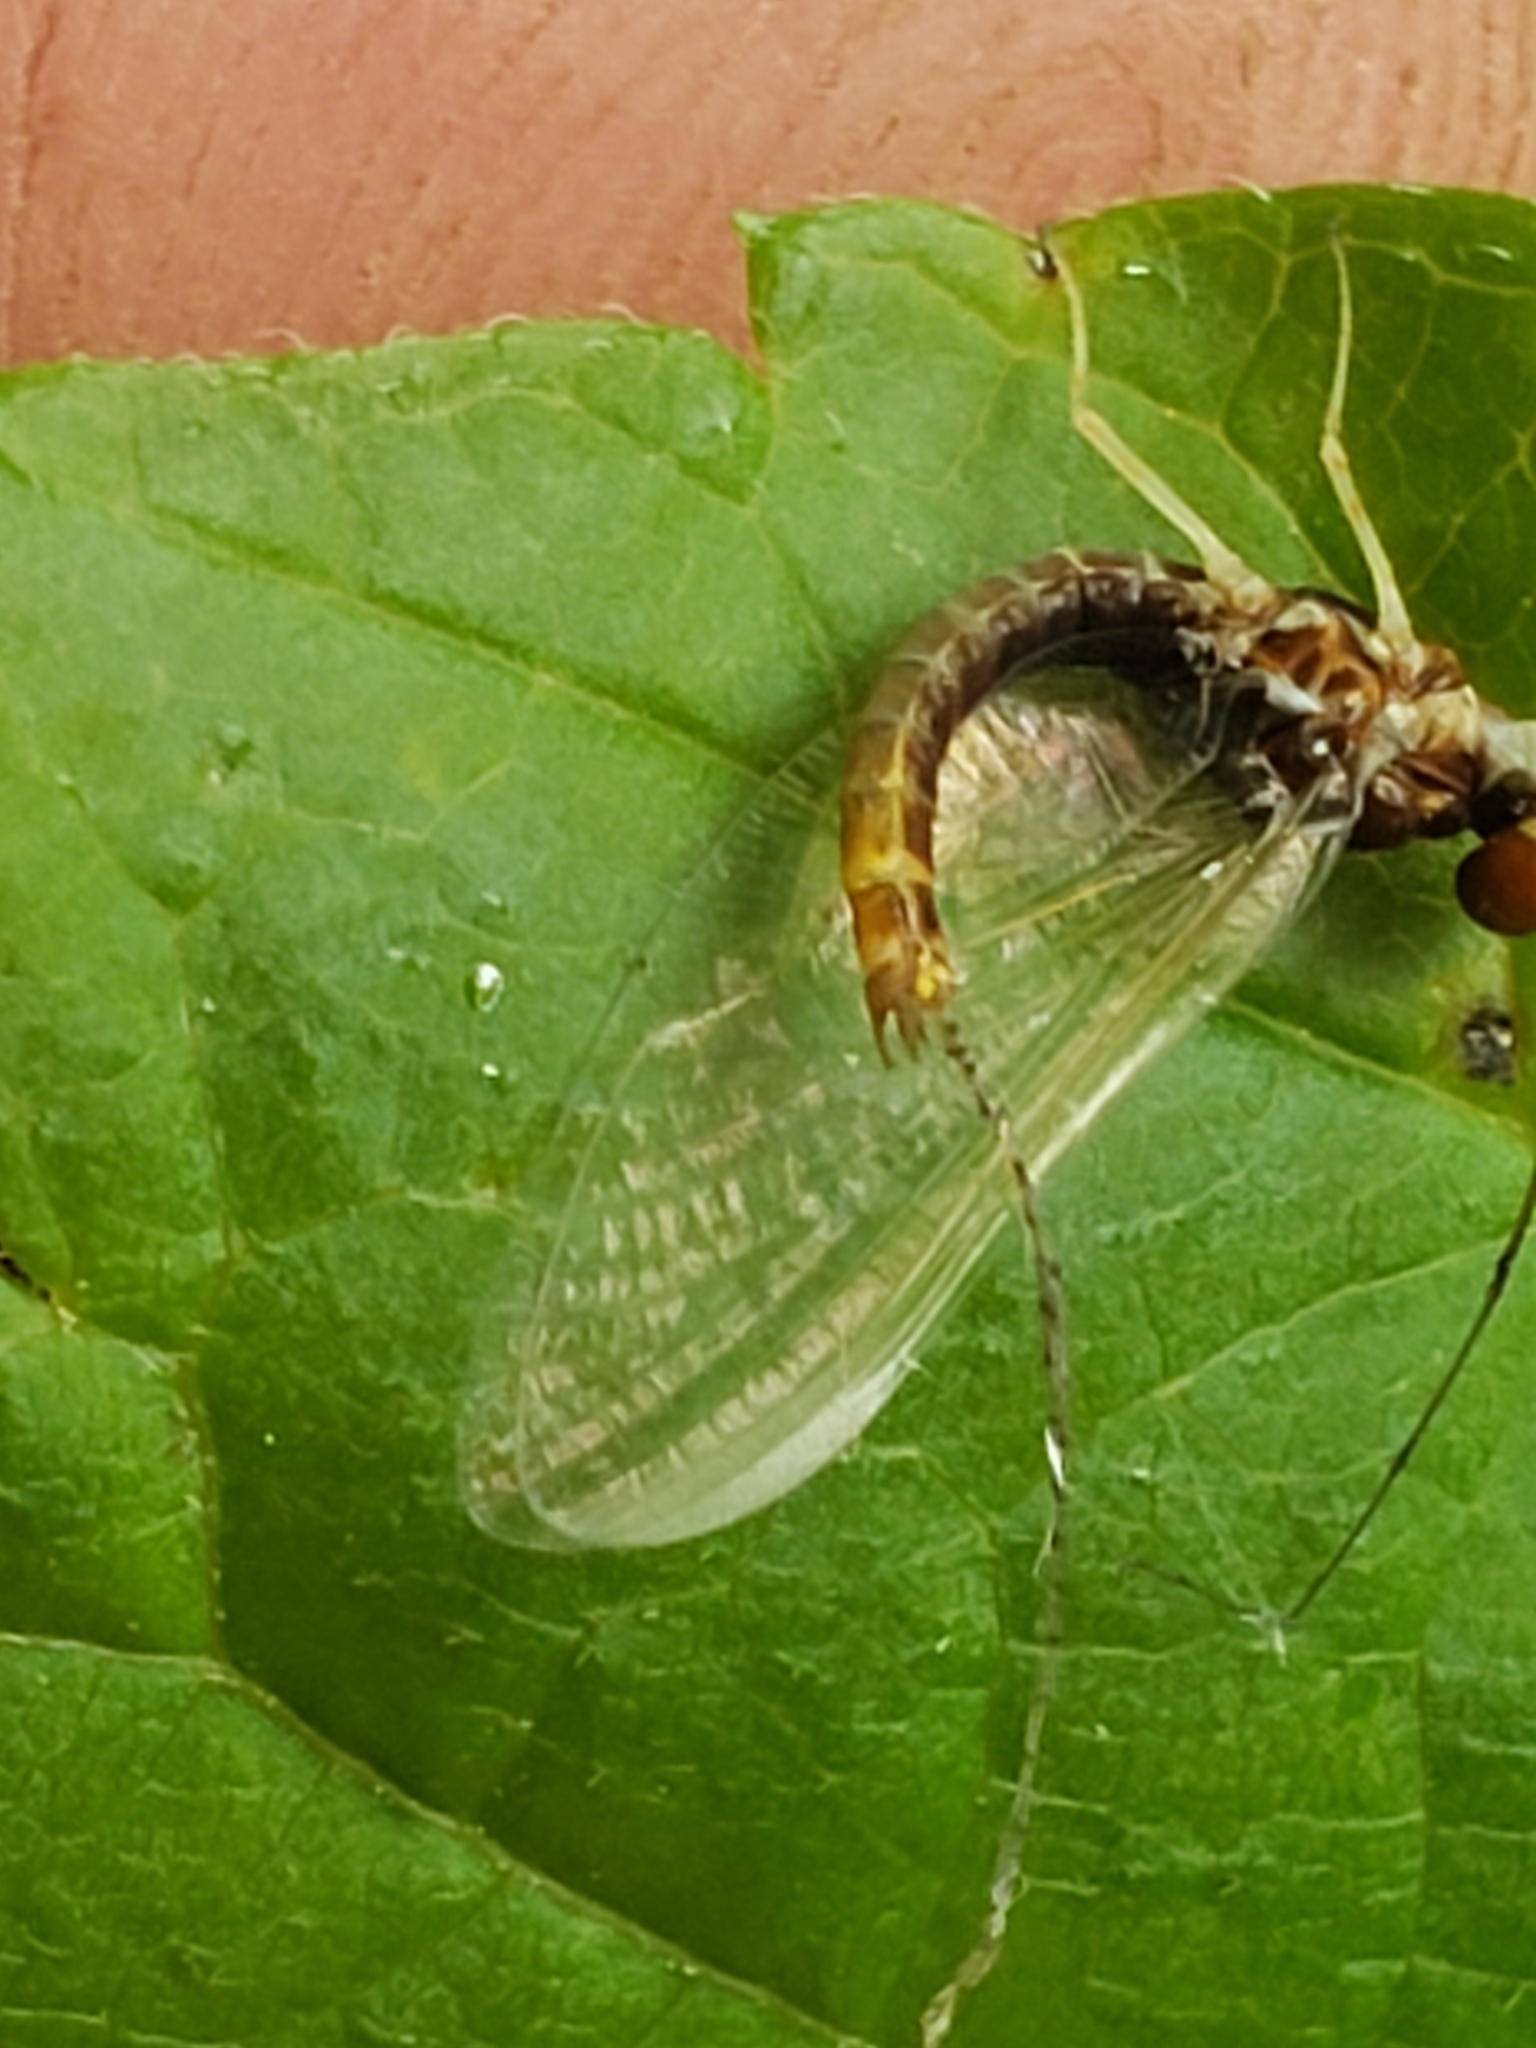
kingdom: Animalia
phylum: Arthropoda
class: Insecta
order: Ephemeroptera
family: Ephemerellidae
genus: Ephemerella
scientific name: Ephemerella needhami
